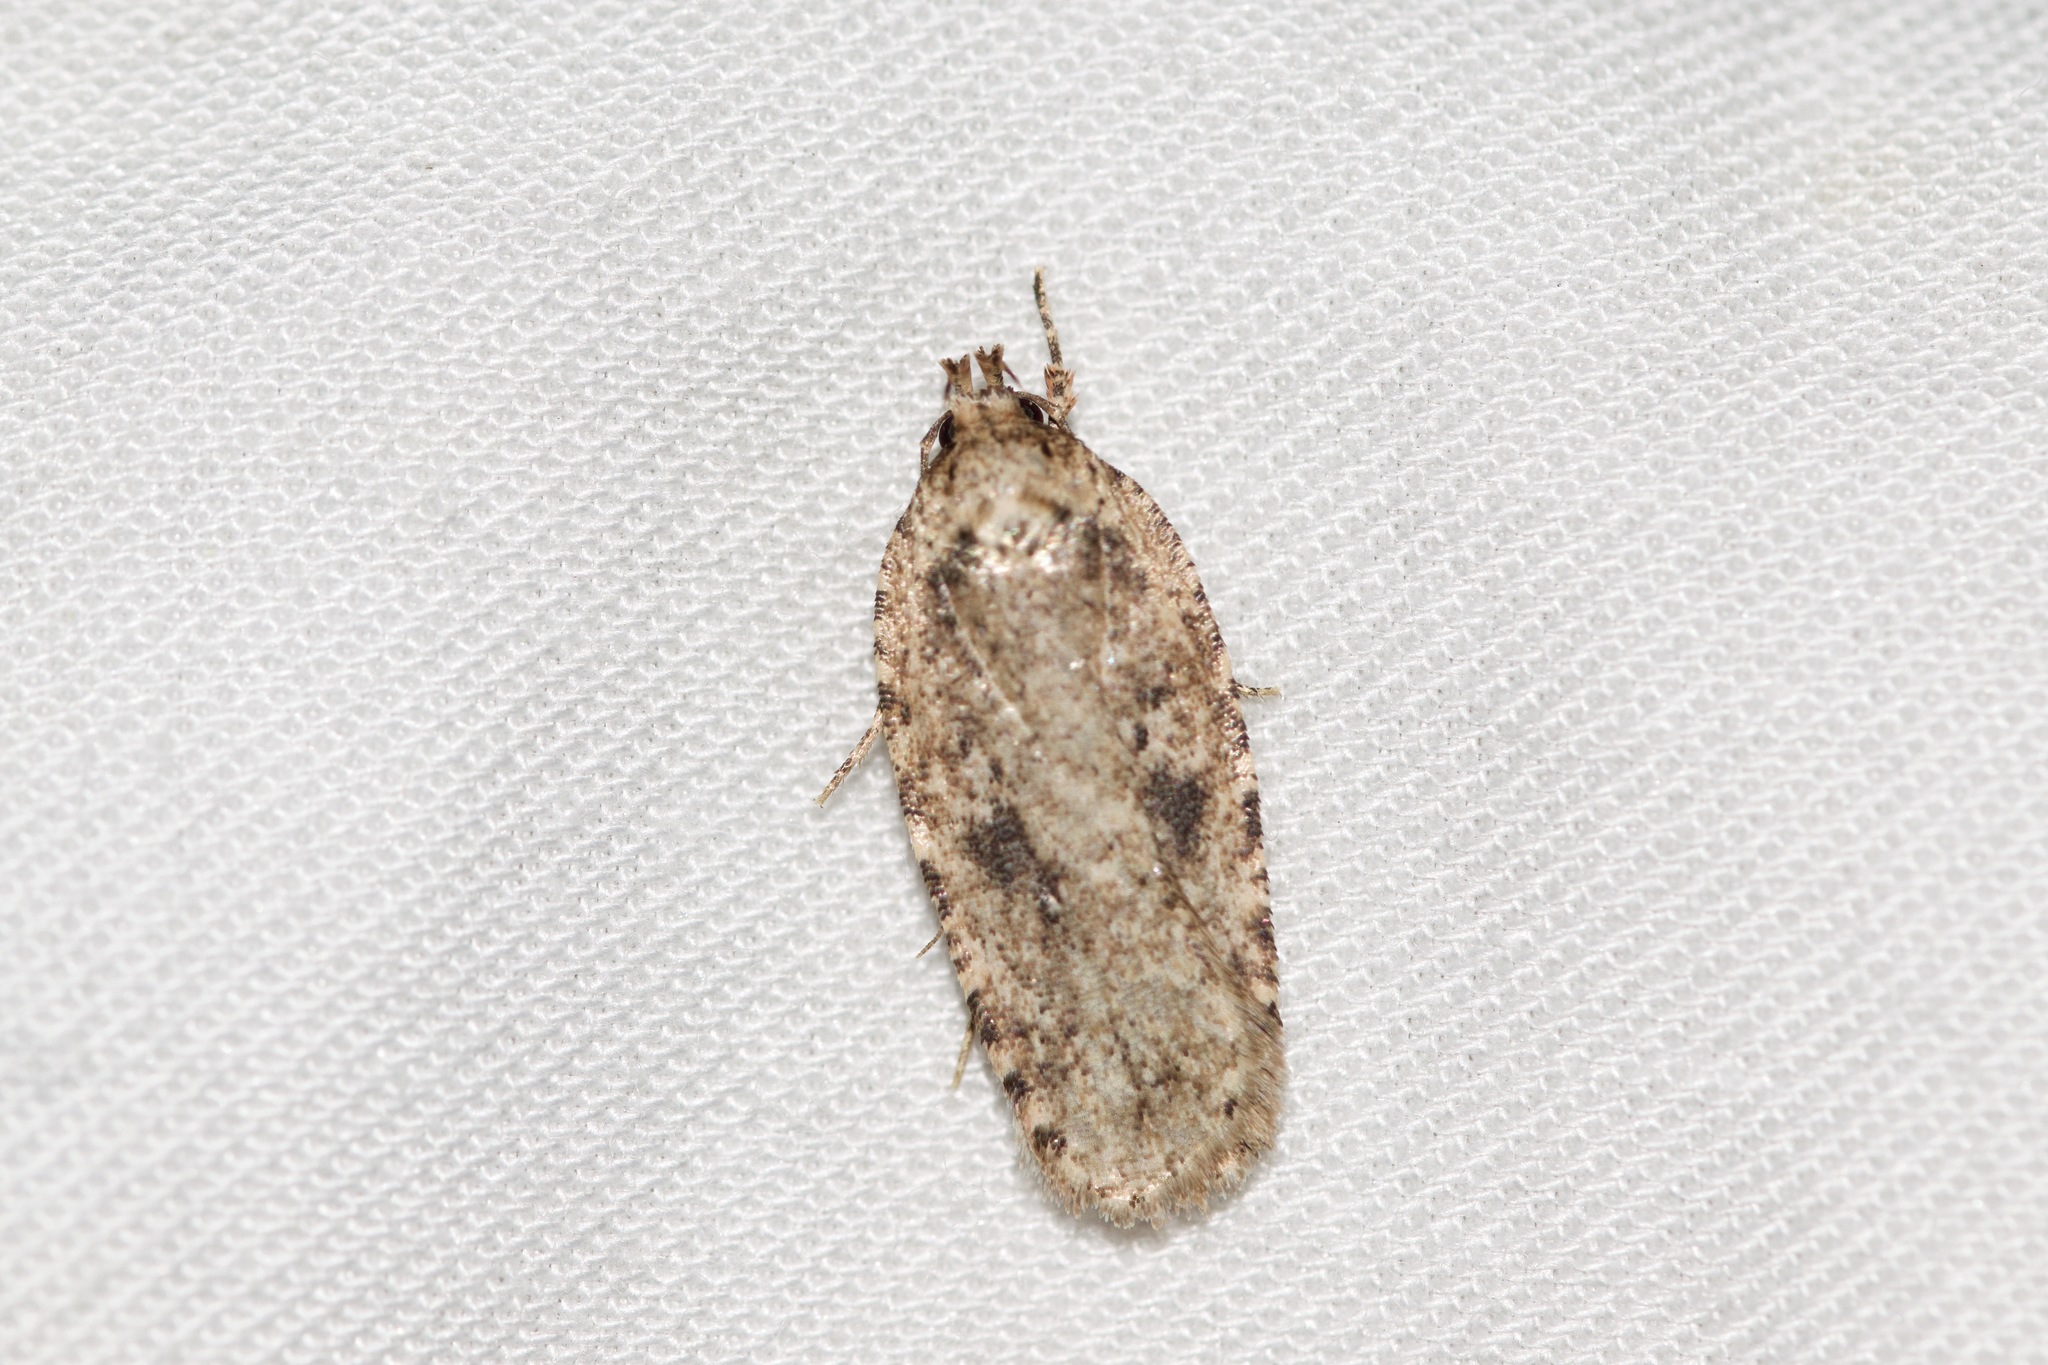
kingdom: Animalia
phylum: Arthropoda
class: Insecta
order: Lepidoptera
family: Depressariidae
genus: Agonopterix
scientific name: Agonopterix pulvipennella
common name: Goldenrod leafffolder
